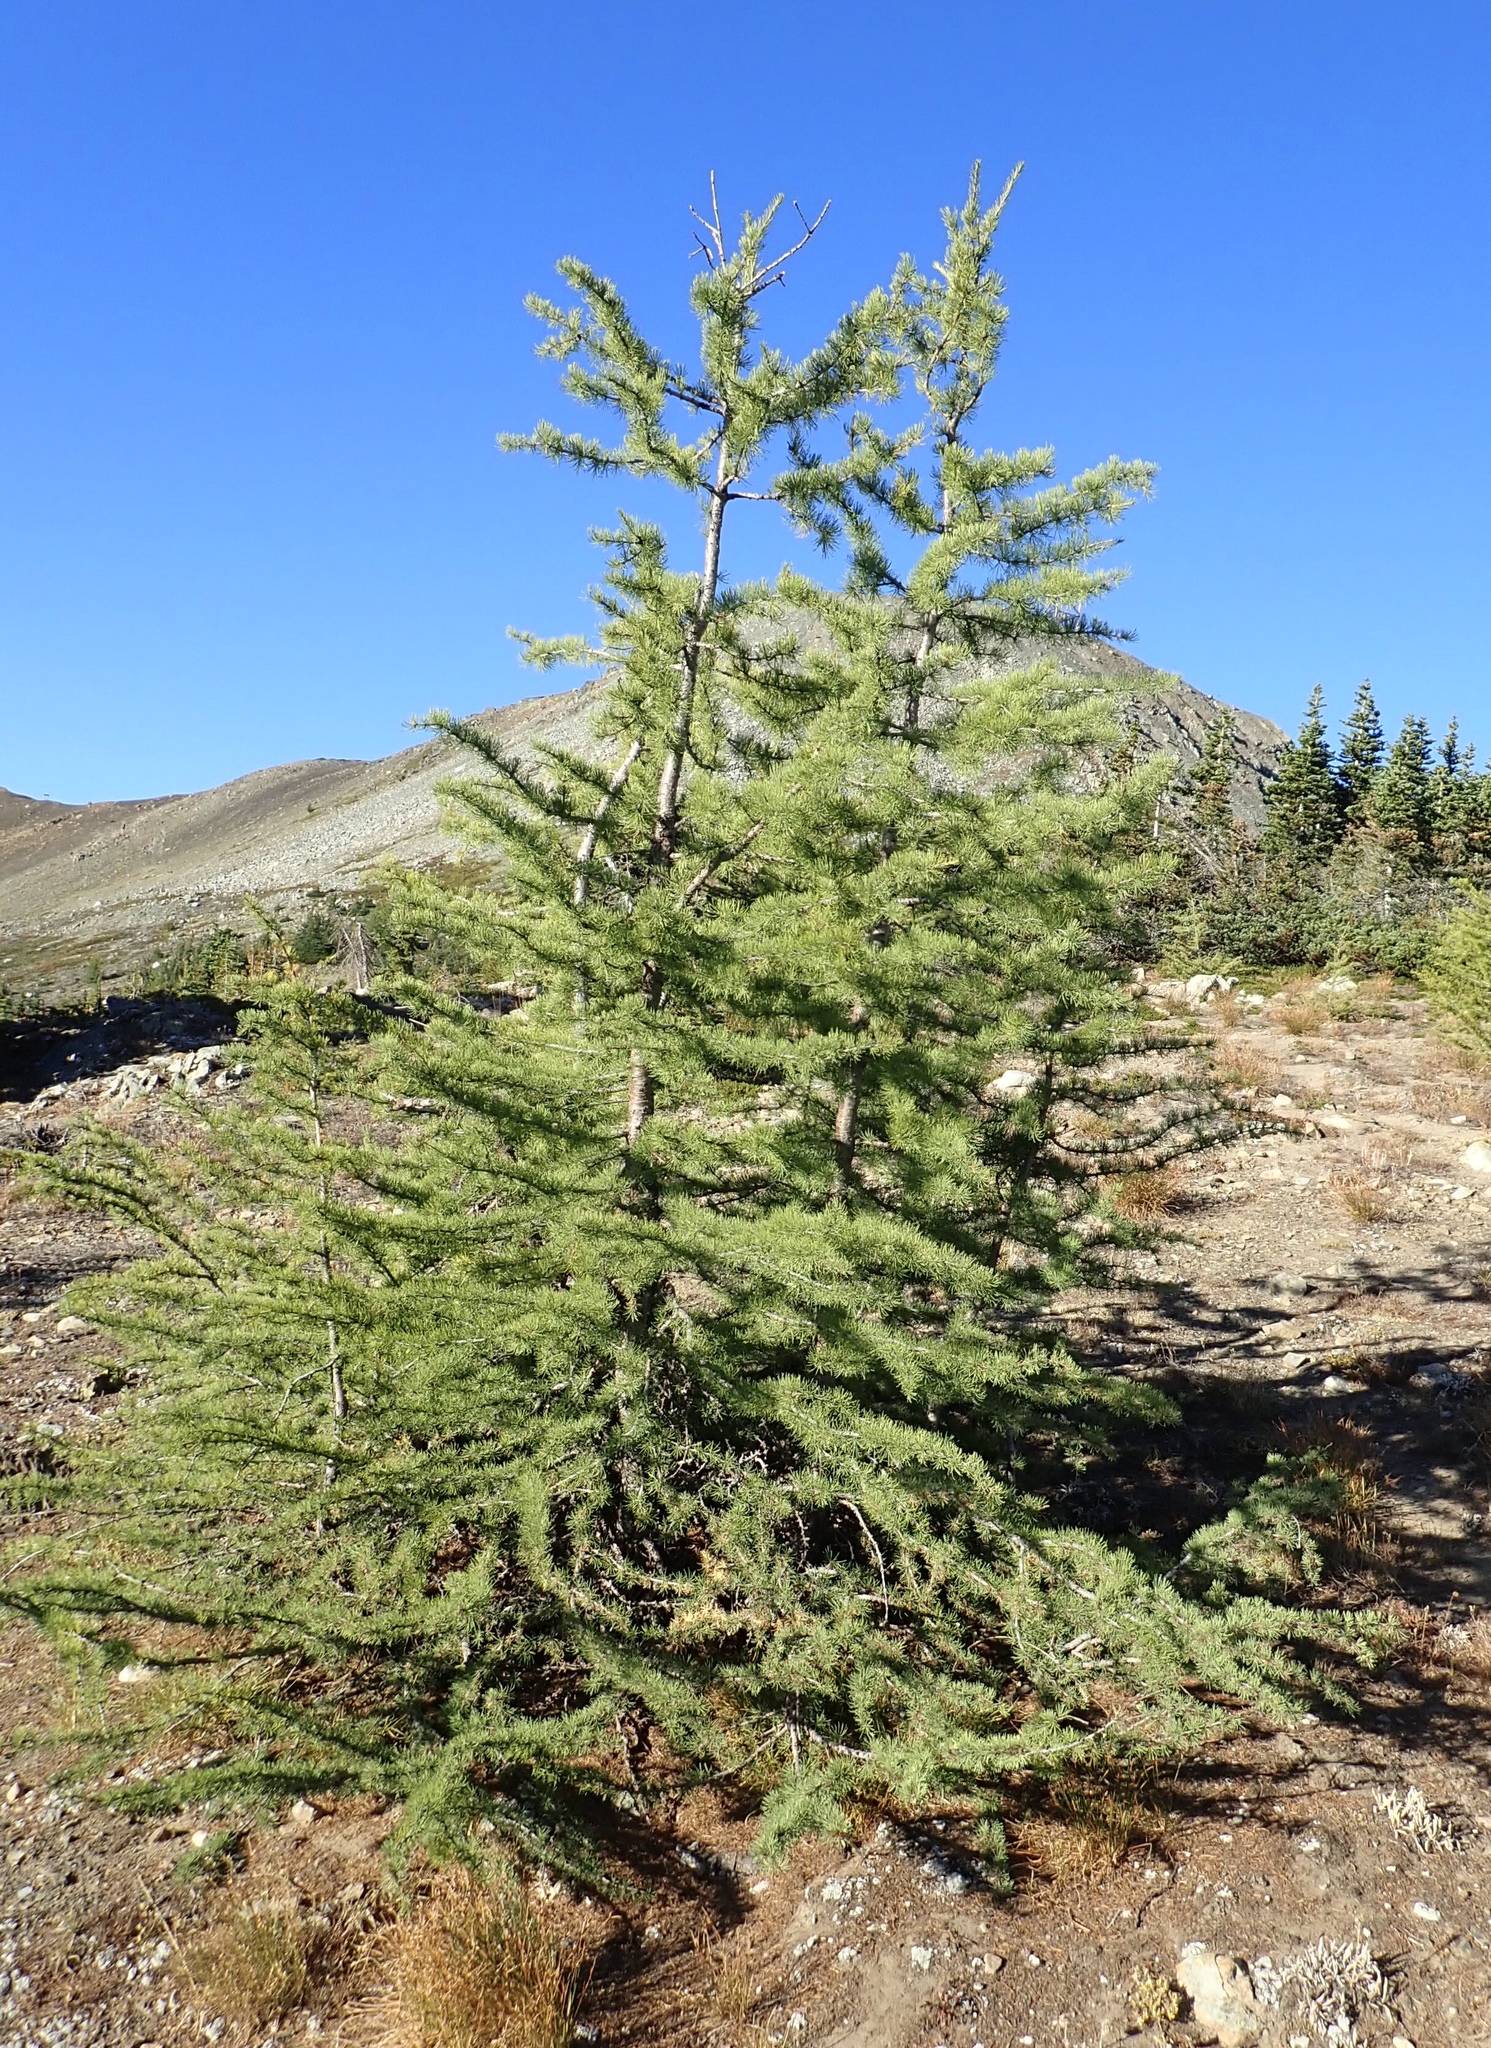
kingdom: Plantae
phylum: Tracheophyta
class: Pinopsida
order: Pinales
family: Pinaceae
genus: Larix
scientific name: Larix lyallii
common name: Alpine larch
